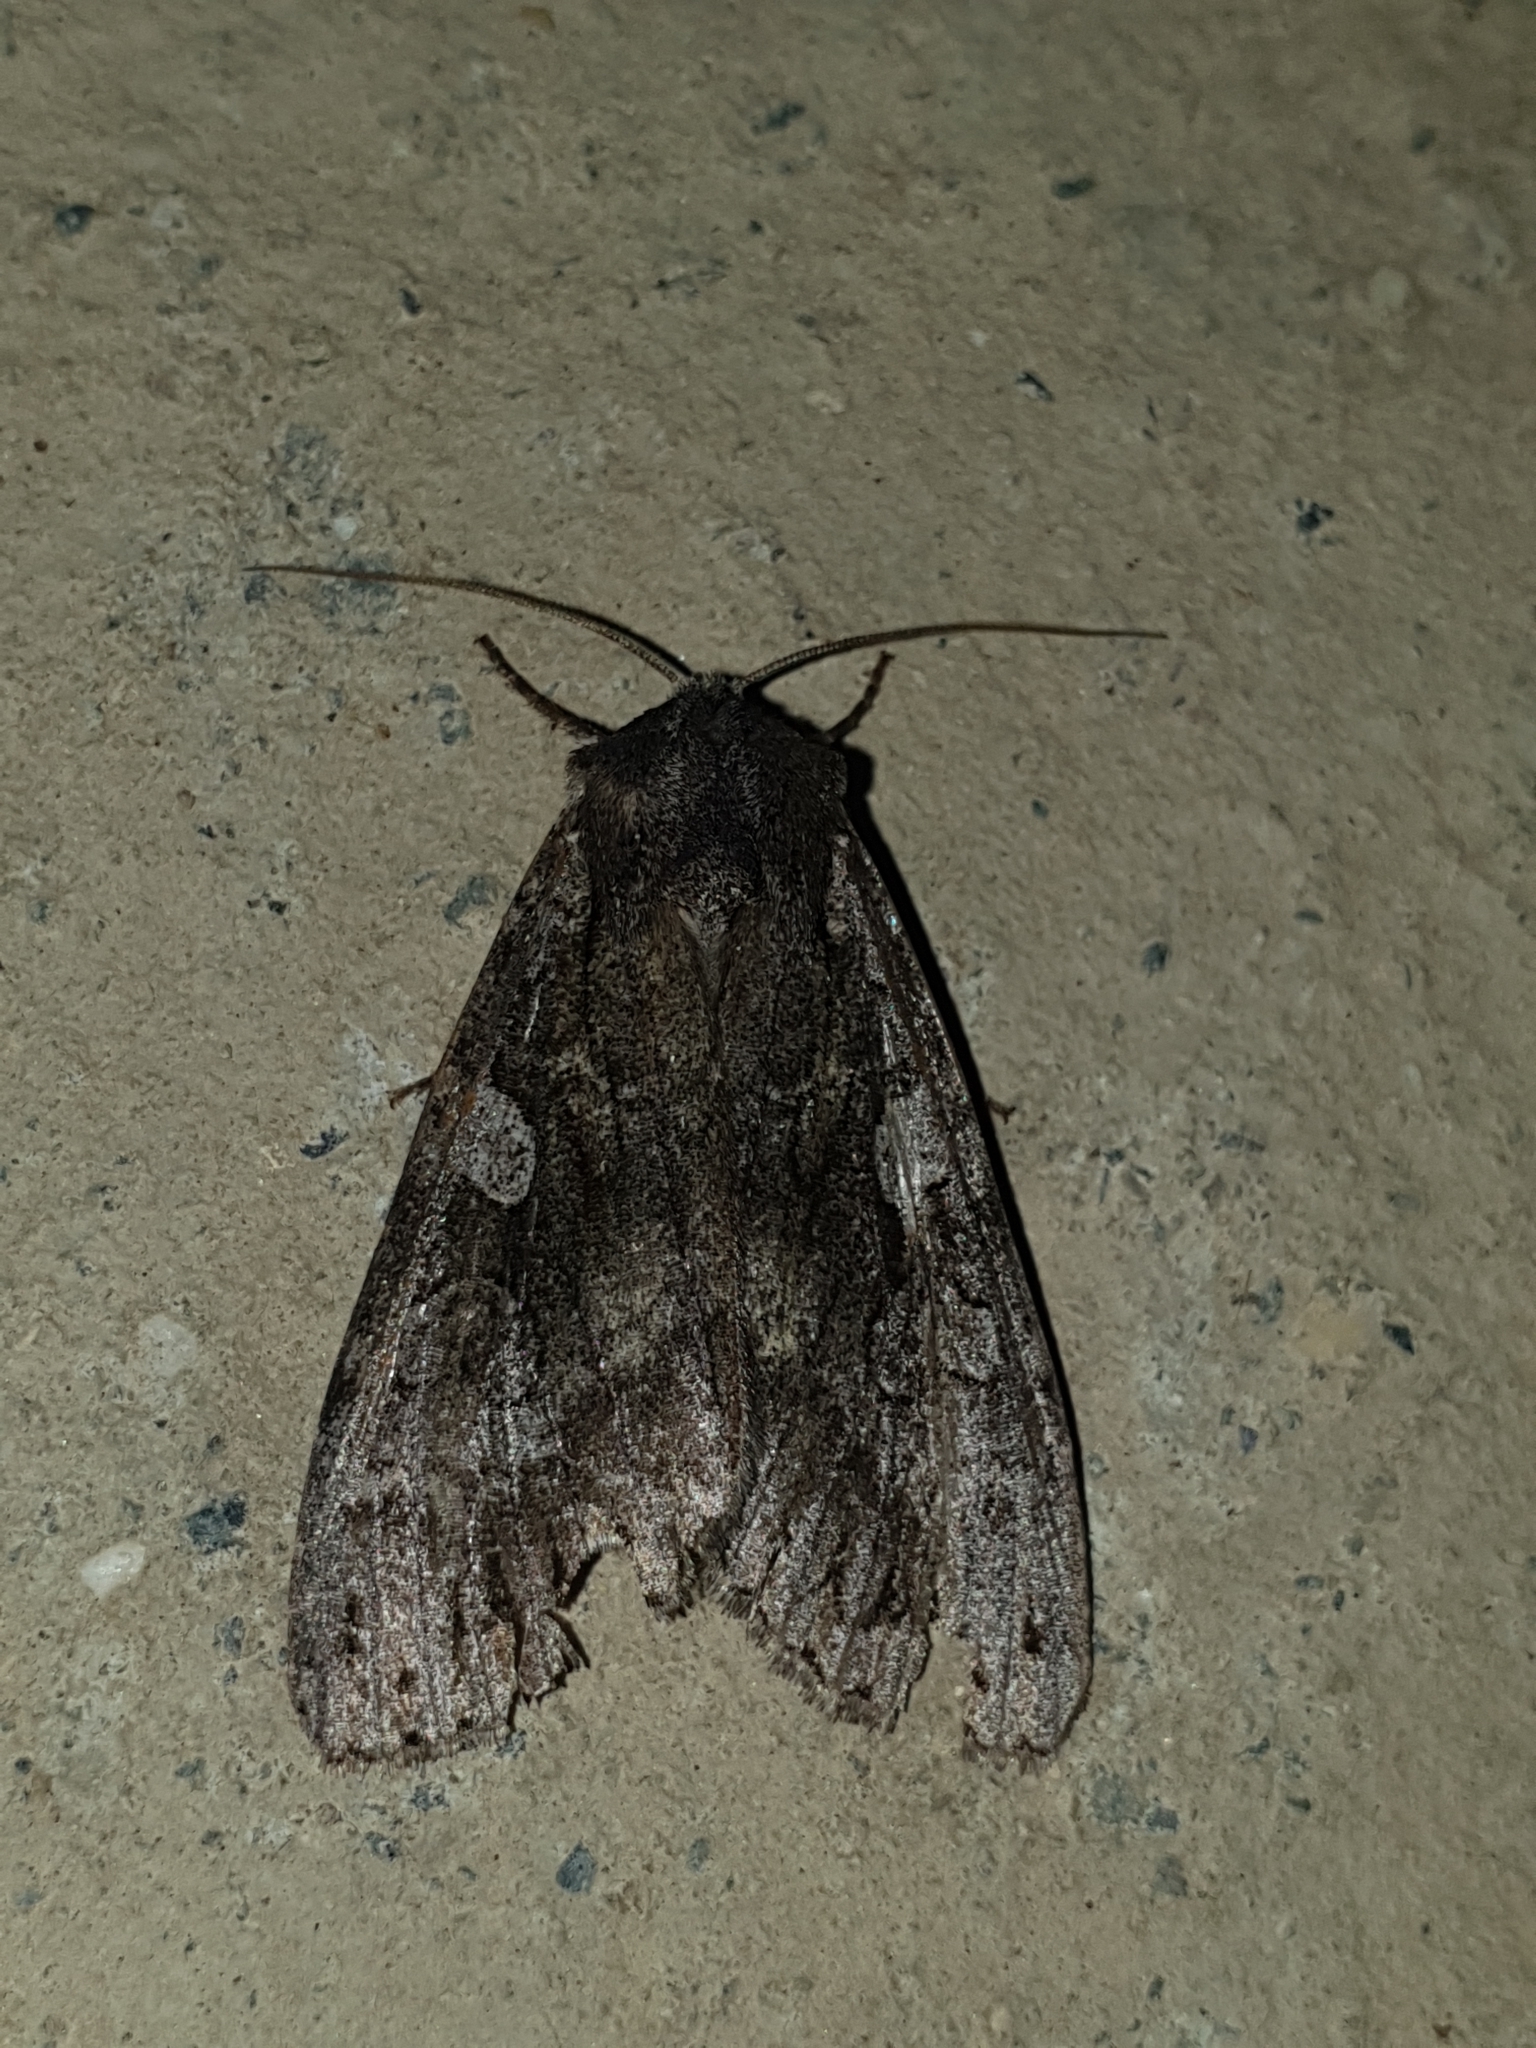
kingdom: Animalia
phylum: Arthropoda
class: Insecta
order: Lepidoptera
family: Noctuidae
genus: Eurois
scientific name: Eurois occulta
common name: Great brocade
